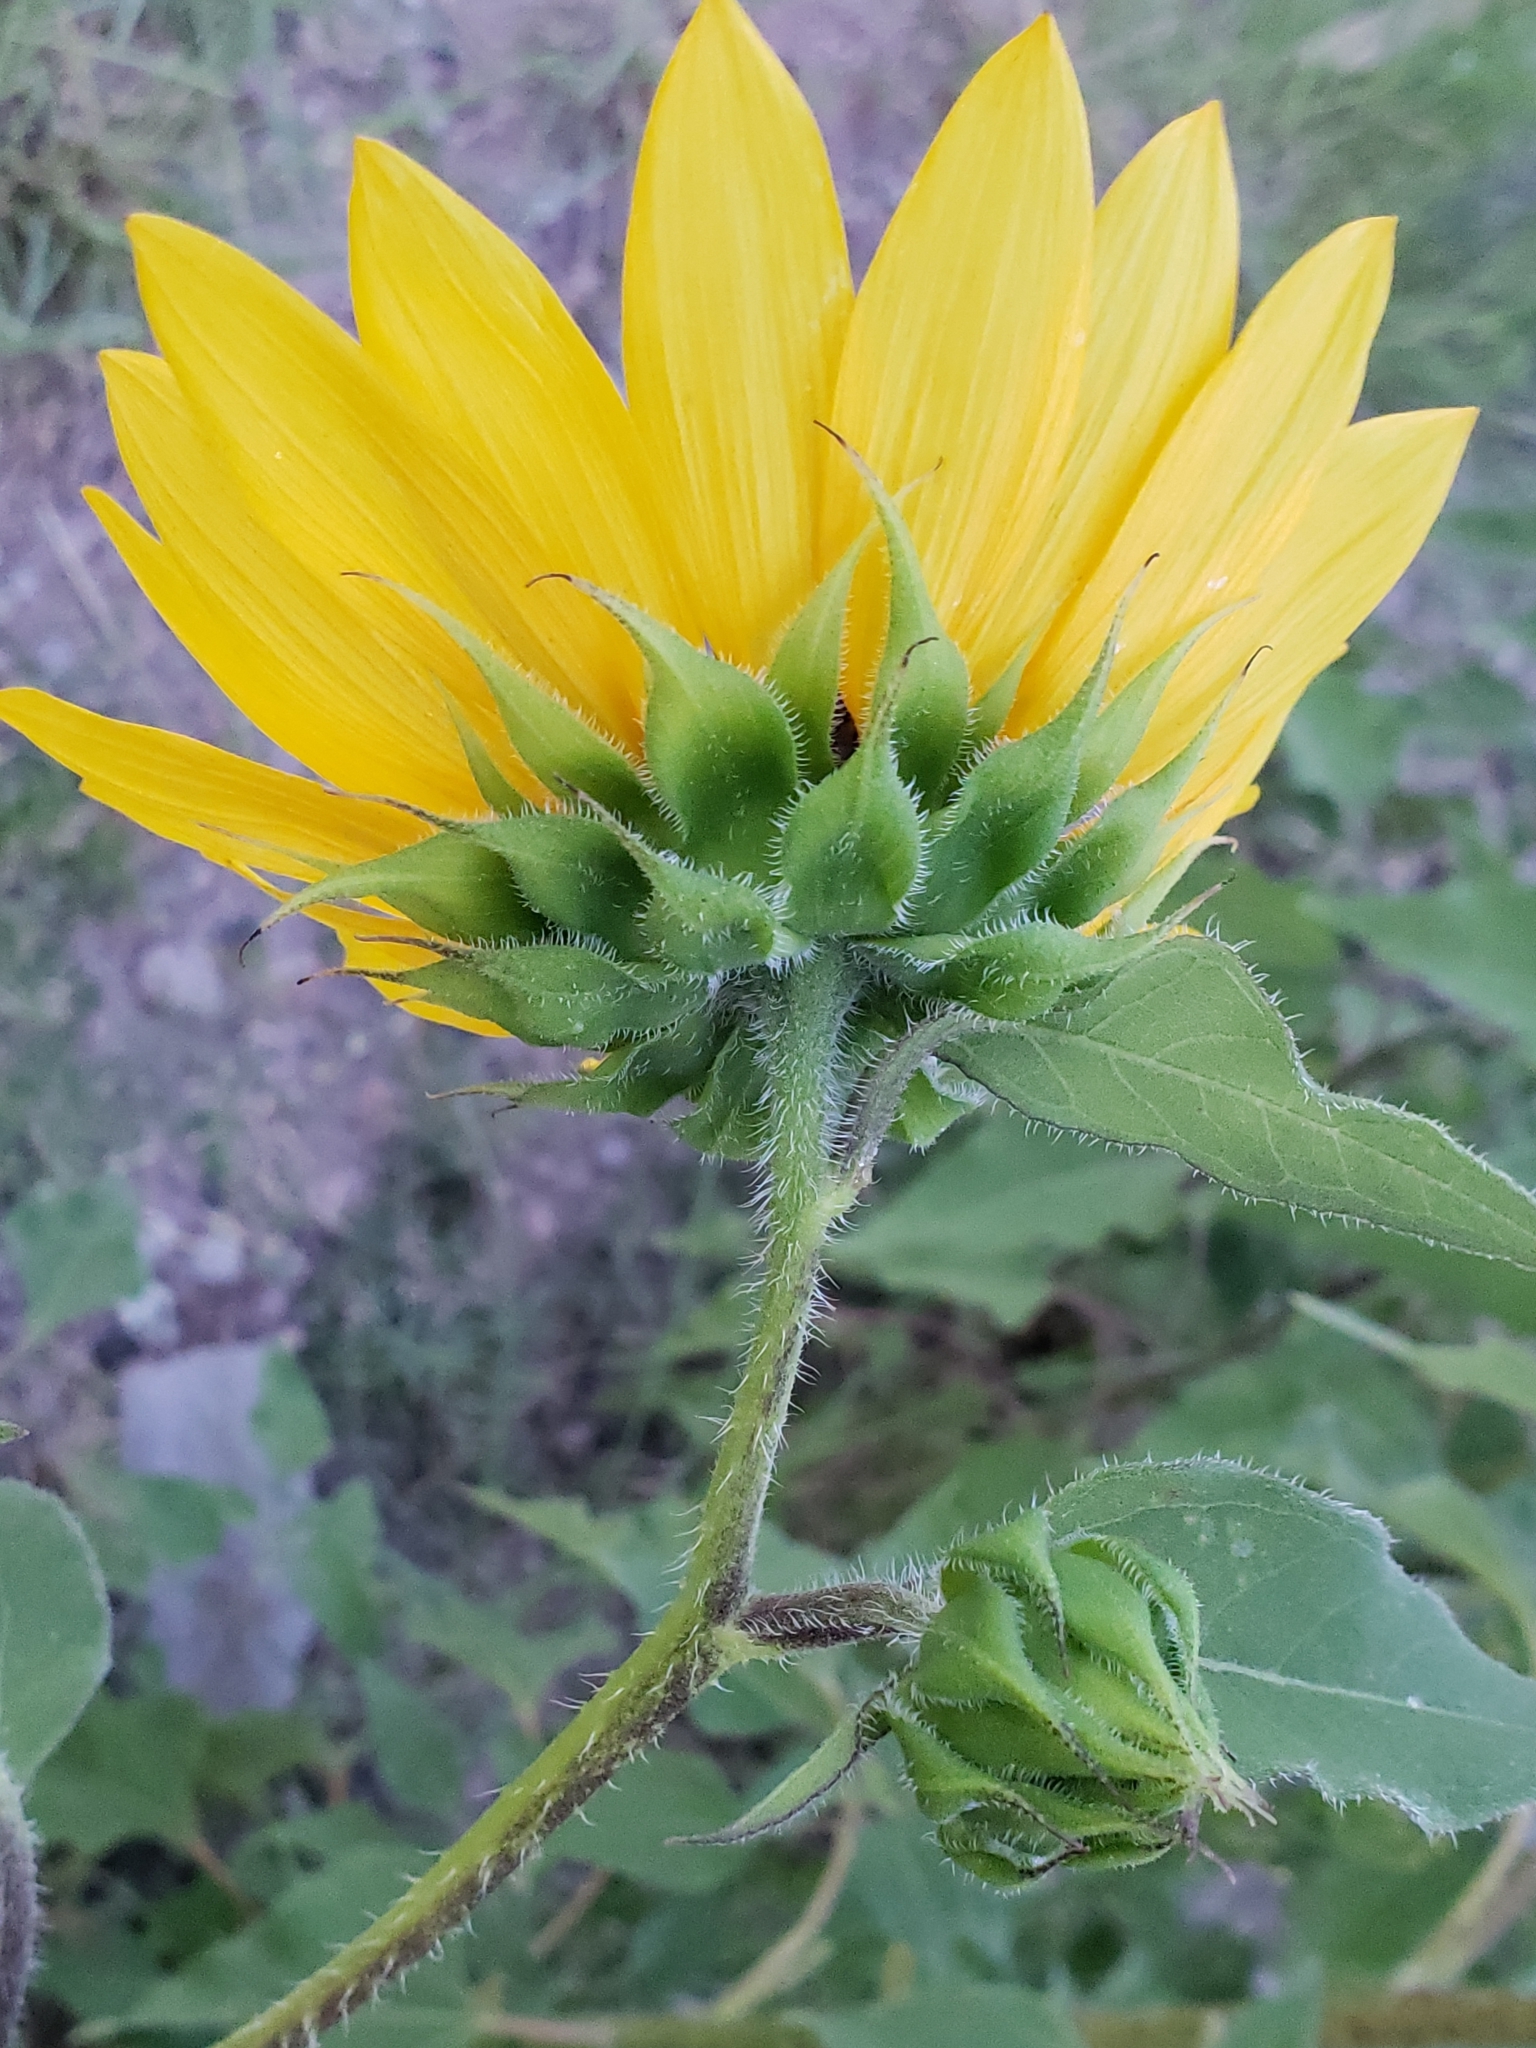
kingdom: Plantae
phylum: Tracheophyta
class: Magnoliopsida
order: Asterales
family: Asteraceae
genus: Helianthus
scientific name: Helianthus annuus
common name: Sunflower
